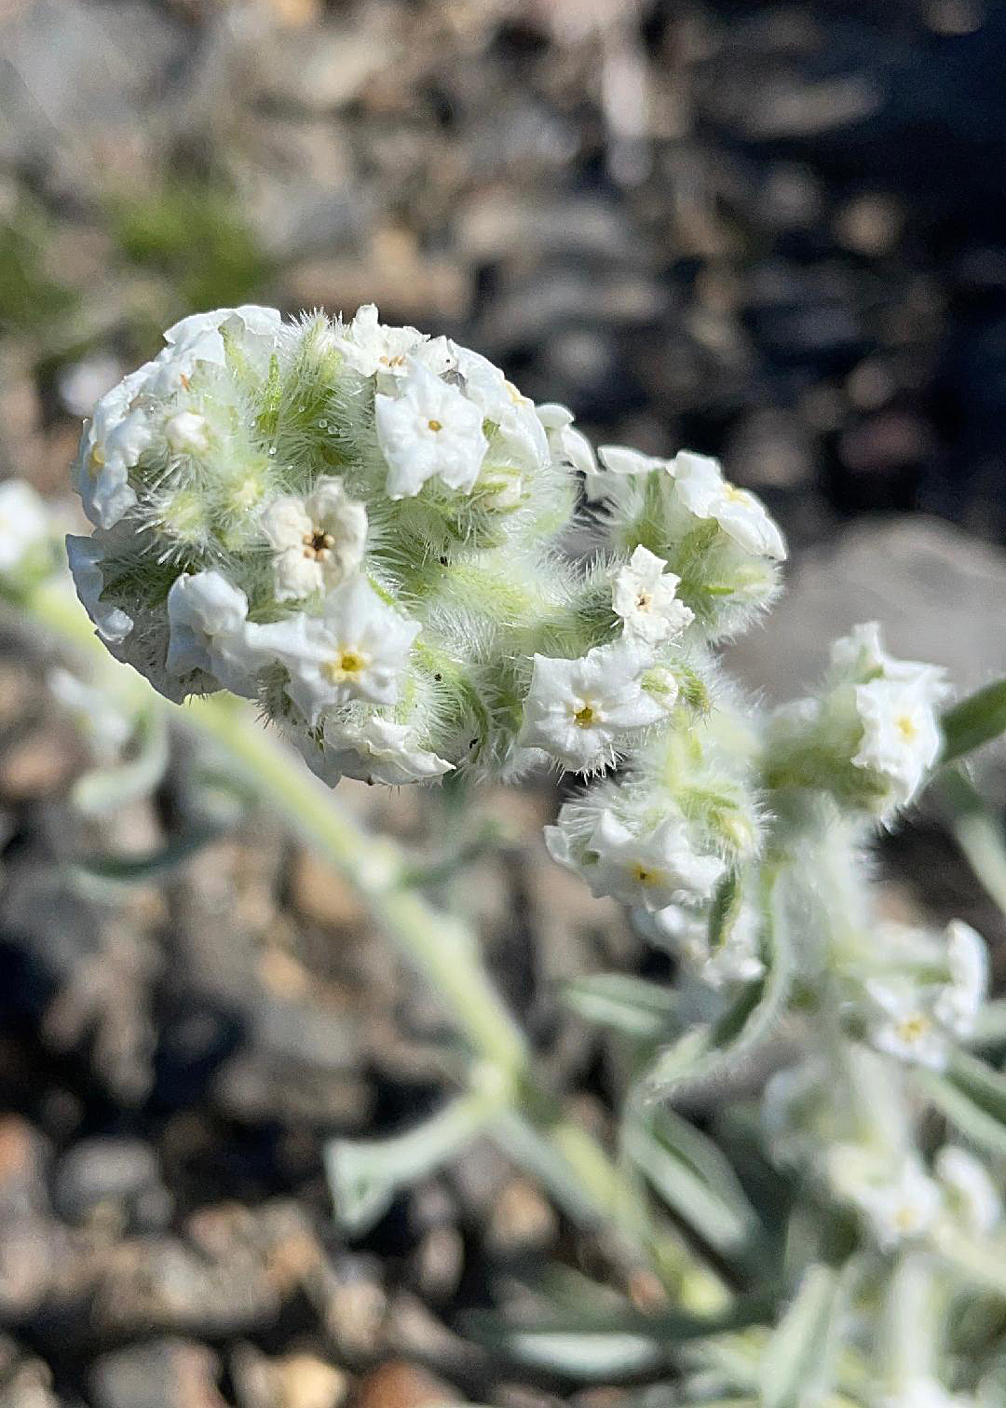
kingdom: Plantae
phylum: Tracheophyta
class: Magnoliopsida
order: Boraginales
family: Boraginaceae
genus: Oreocarya
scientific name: Oreocarya hoffmannii
